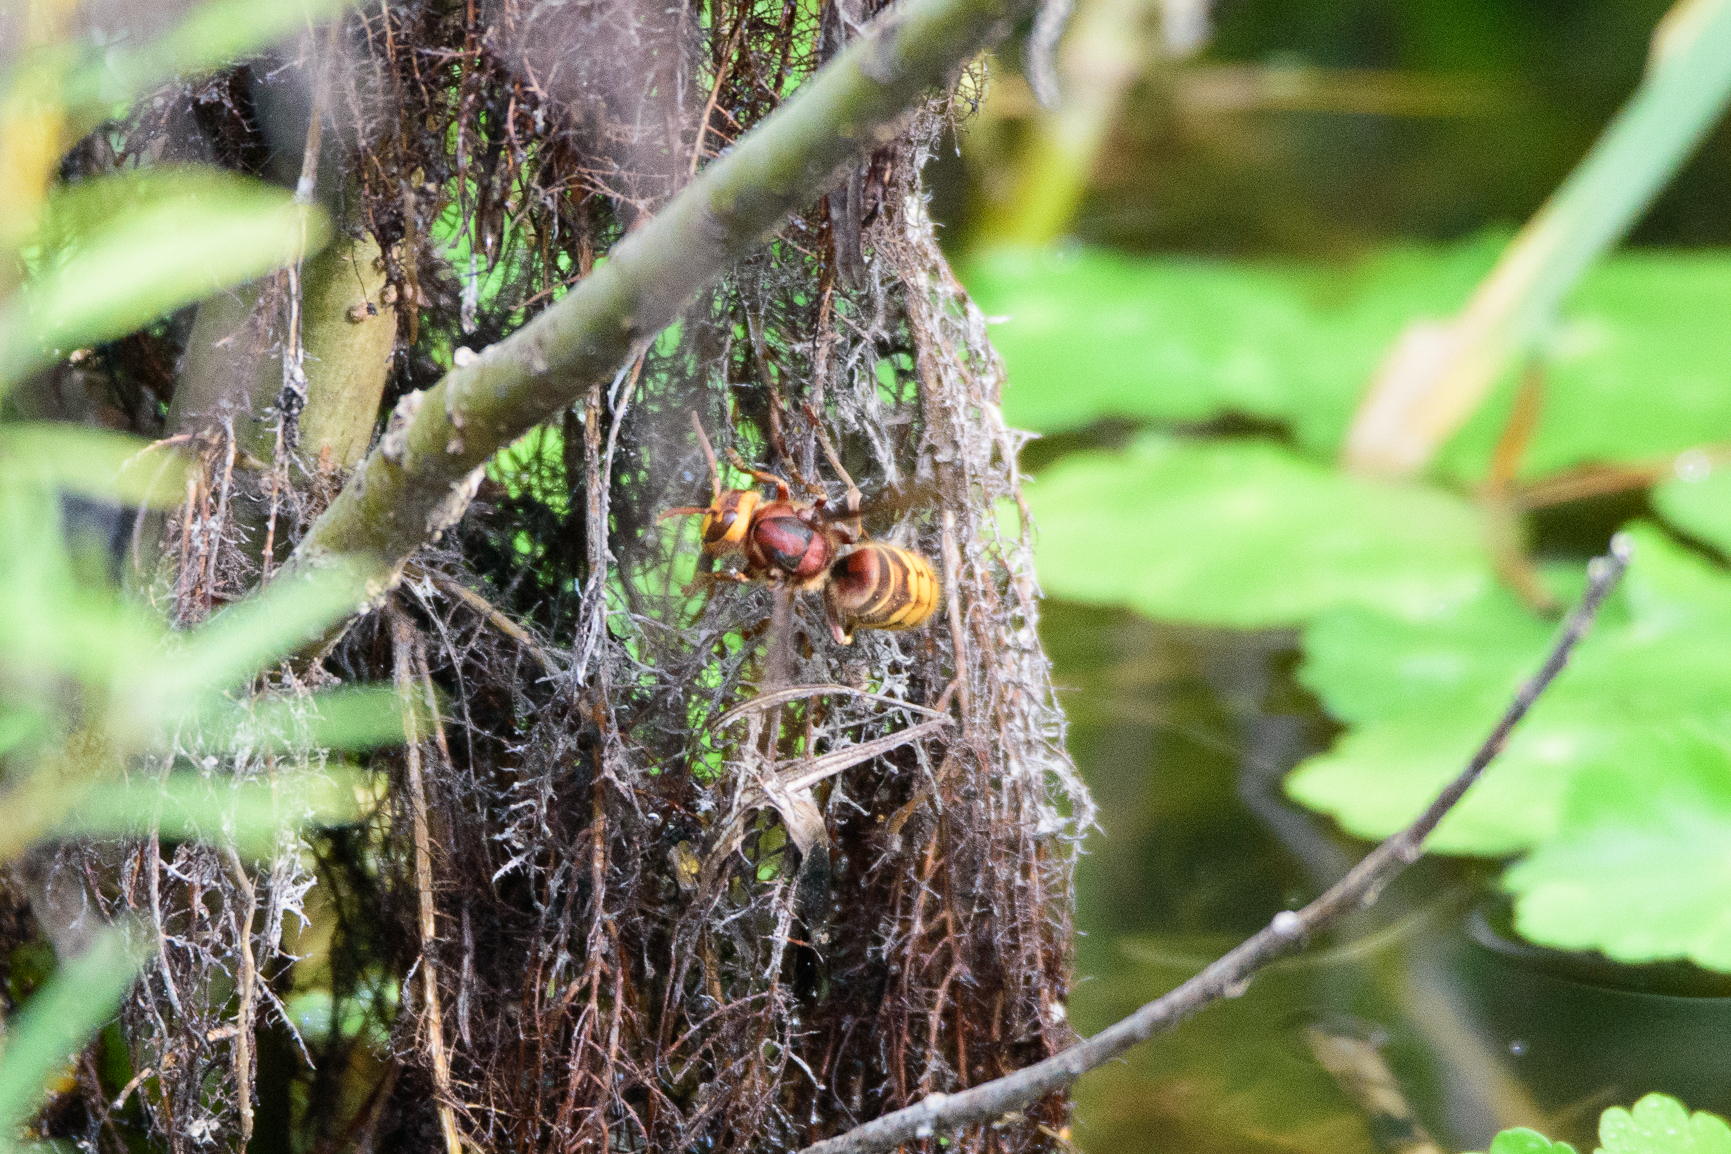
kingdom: Animalia
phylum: Arthropoda
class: Insecta
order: Hymenoptera
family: Vespidae
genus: Vespa
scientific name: Vespa crabro
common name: Hornet
